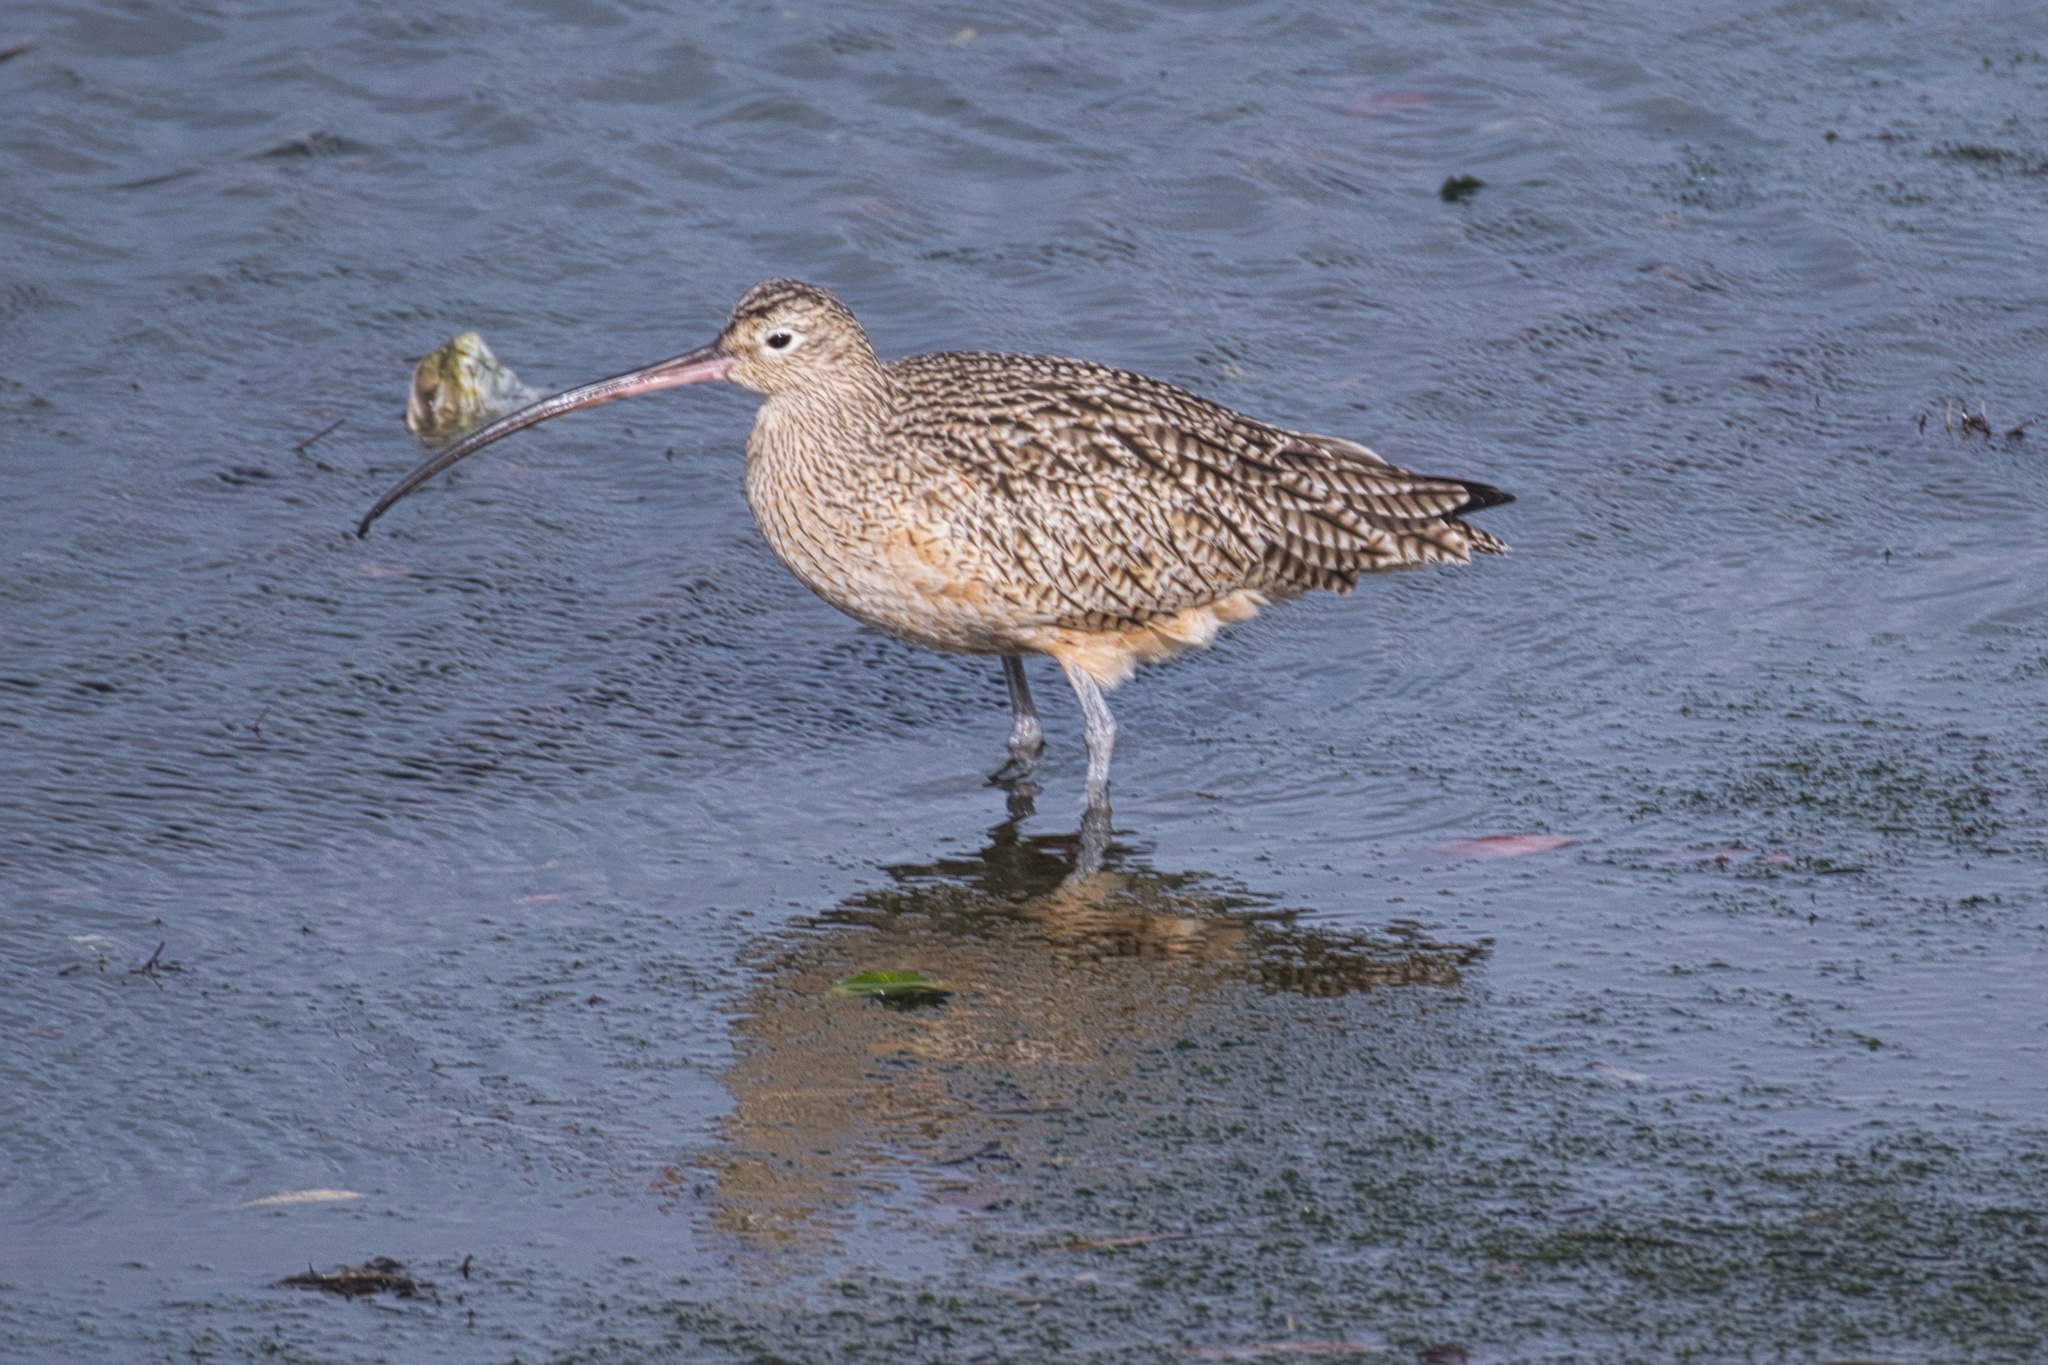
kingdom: Animalia
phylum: Chordata
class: Aves
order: Charadriiformes
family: Scolopacidae
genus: Numenius
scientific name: Numenius americanus
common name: Long-billed curlew
